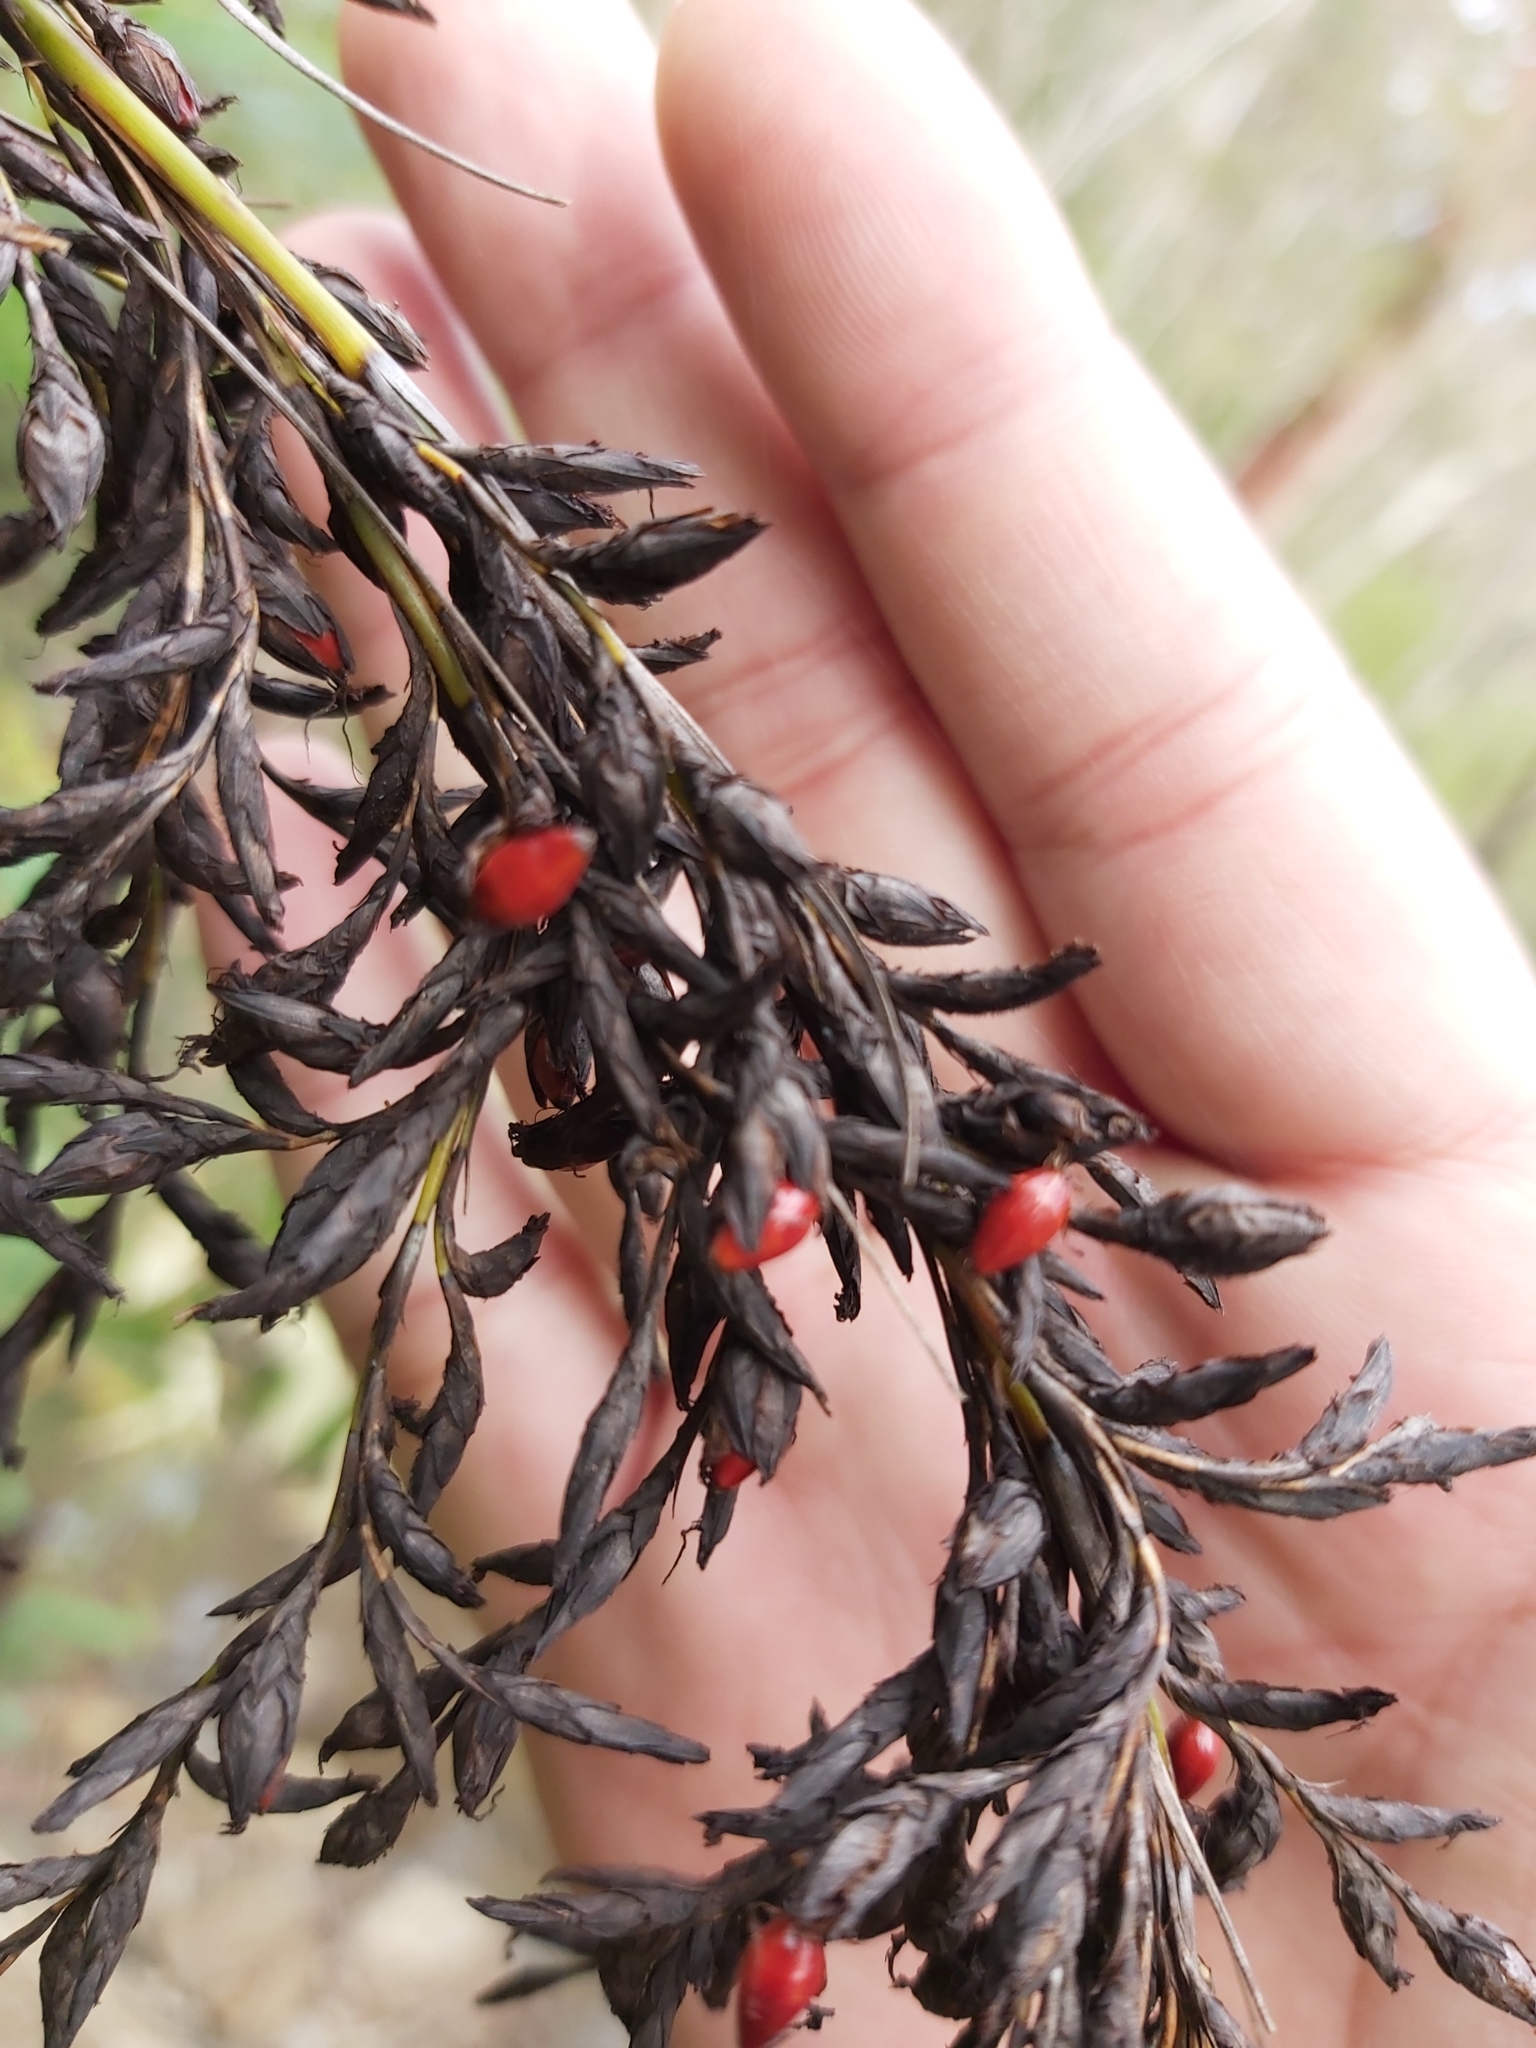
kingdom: Plantae
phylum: Tracheophyta
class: Liliopsida
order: Poales
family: Cyperaceae
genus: Gahnia
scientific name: Gahnia sieberiana
